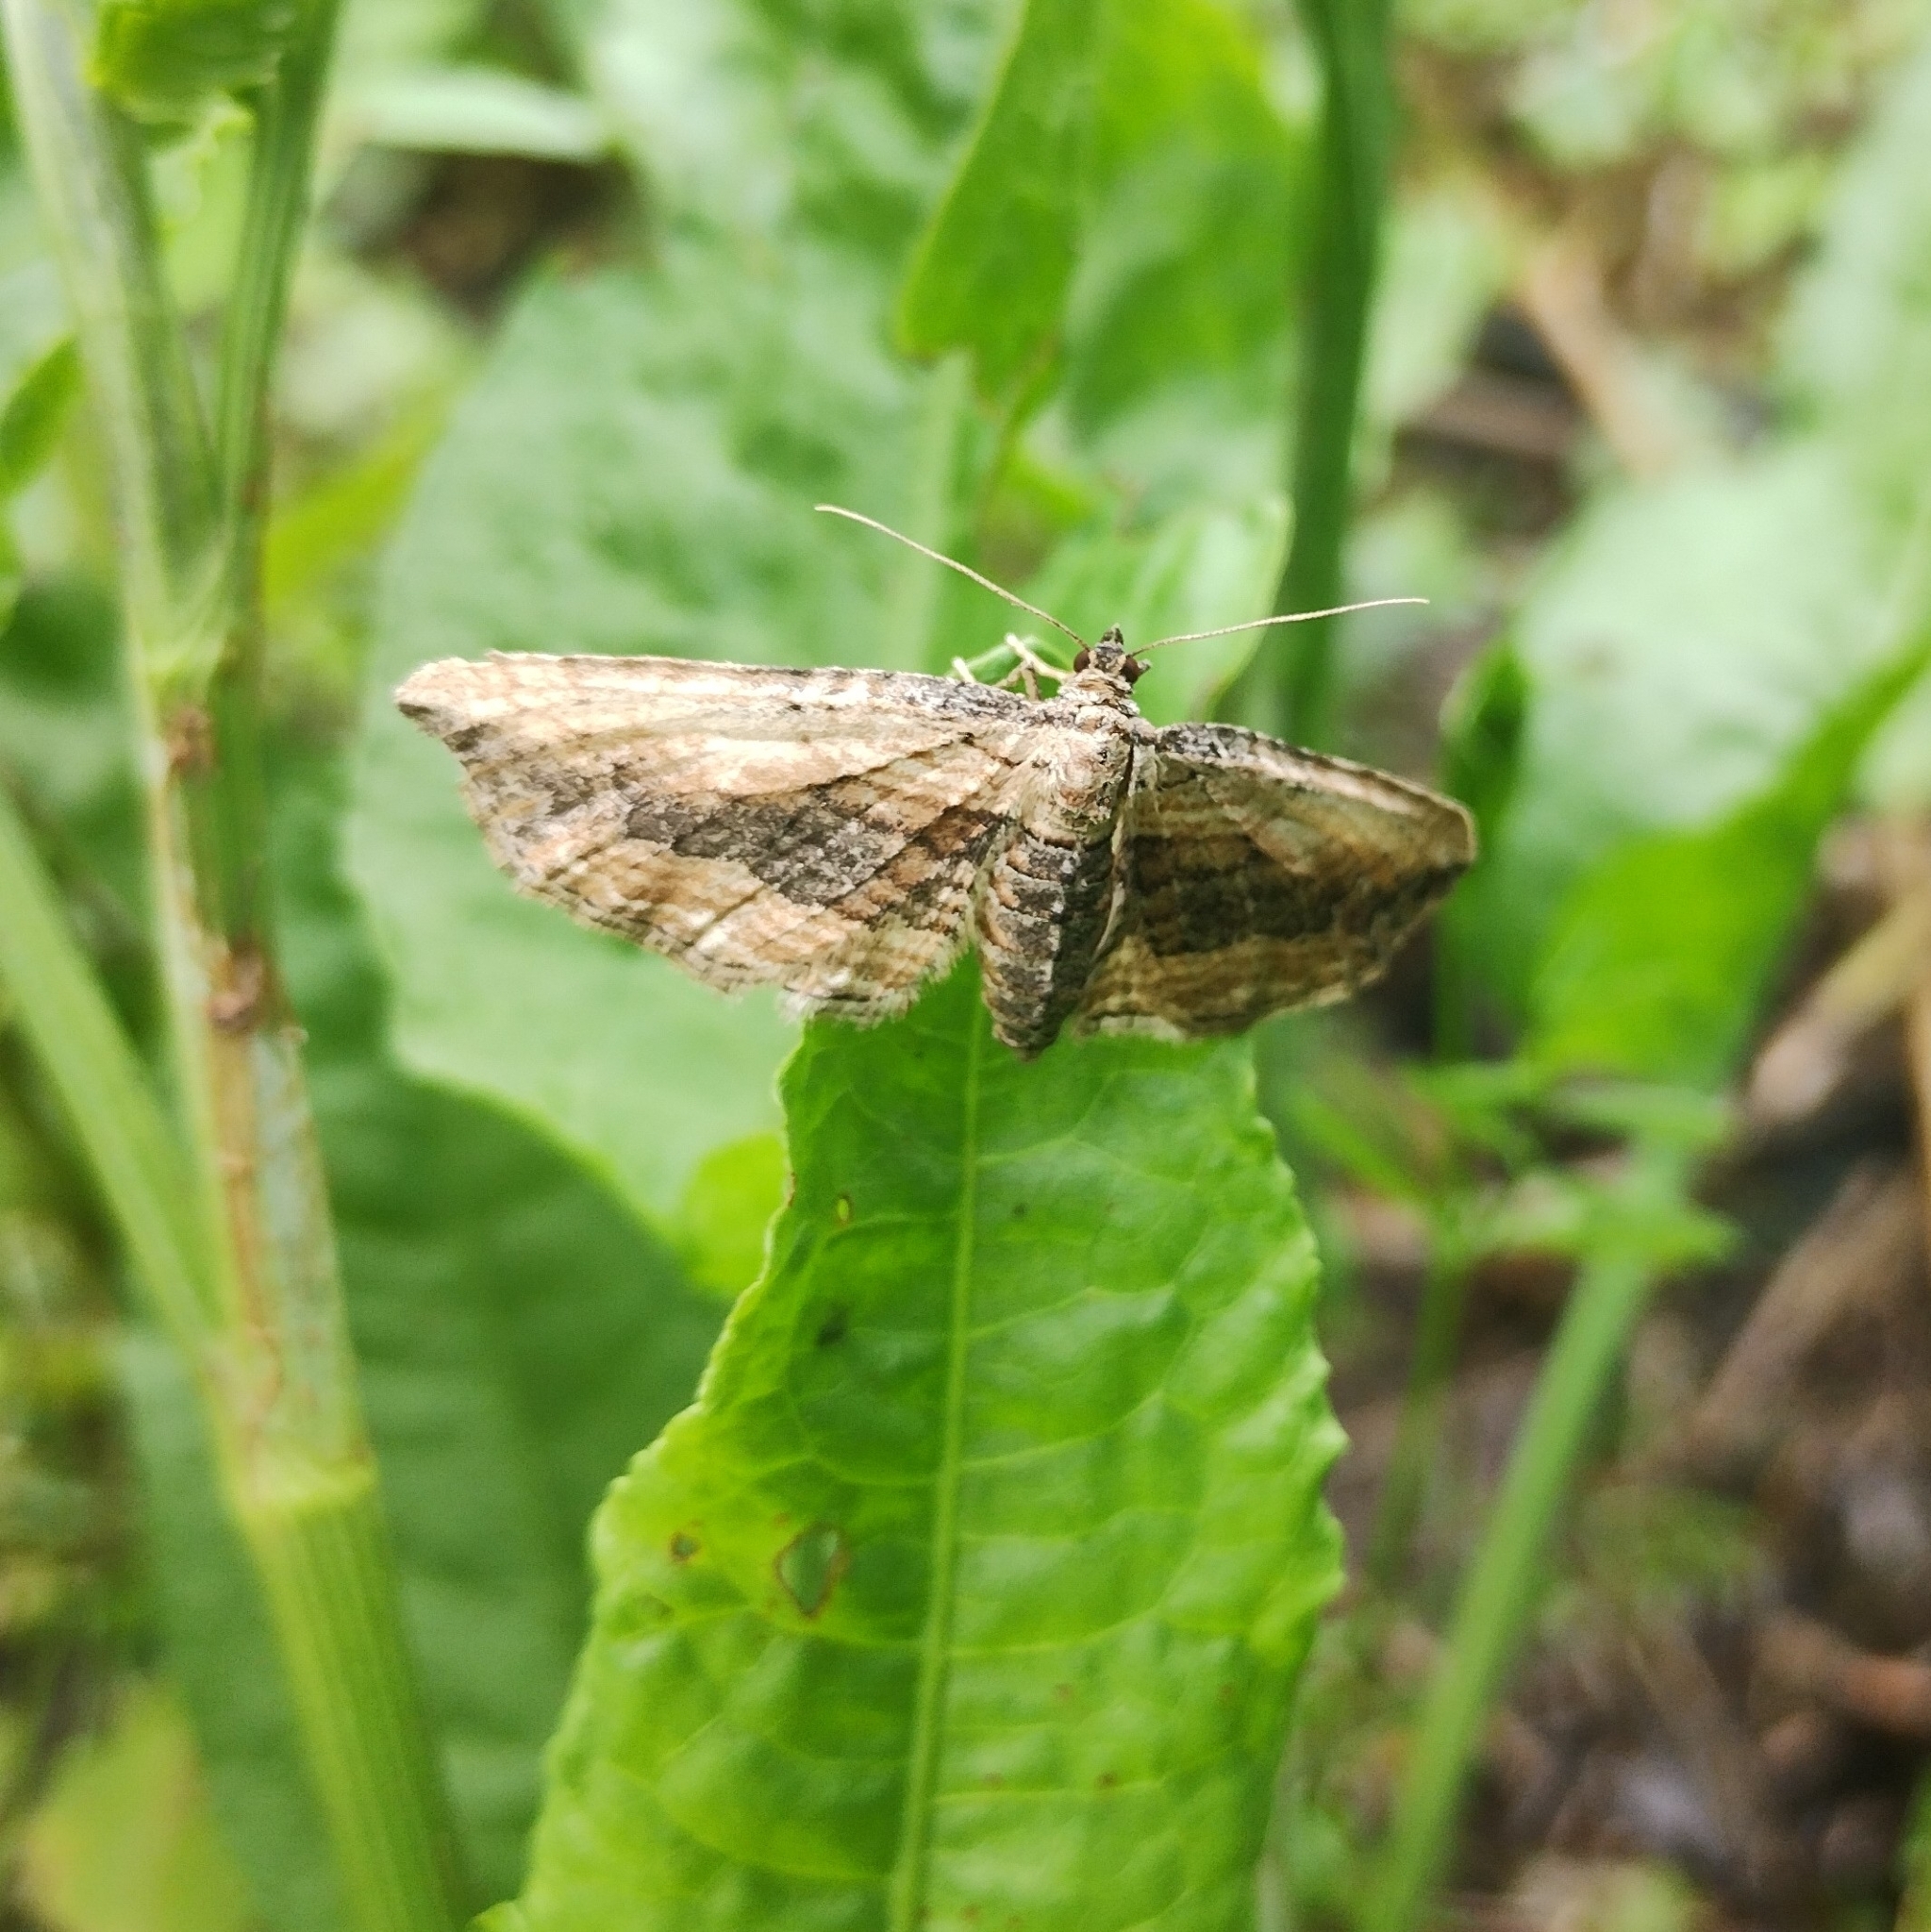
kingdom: Animalia
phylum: Arthropoda
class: Insecta
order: Lepidoptera
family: Geometridae
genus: Horisme
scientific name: Horisme vitalbata
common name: Small waved umber
